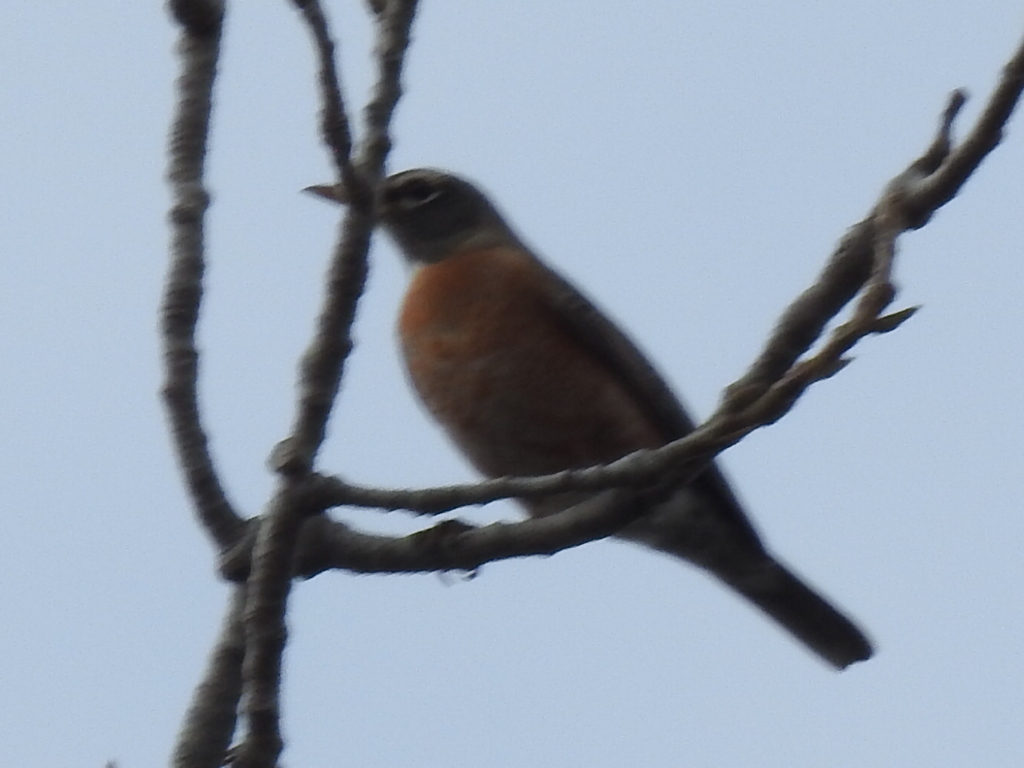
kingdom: Animalia
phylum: Chordata
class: Aves
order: Passeriformes
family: Turdidae
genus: Turdus
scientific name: Turdus migratorius
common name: American robin
